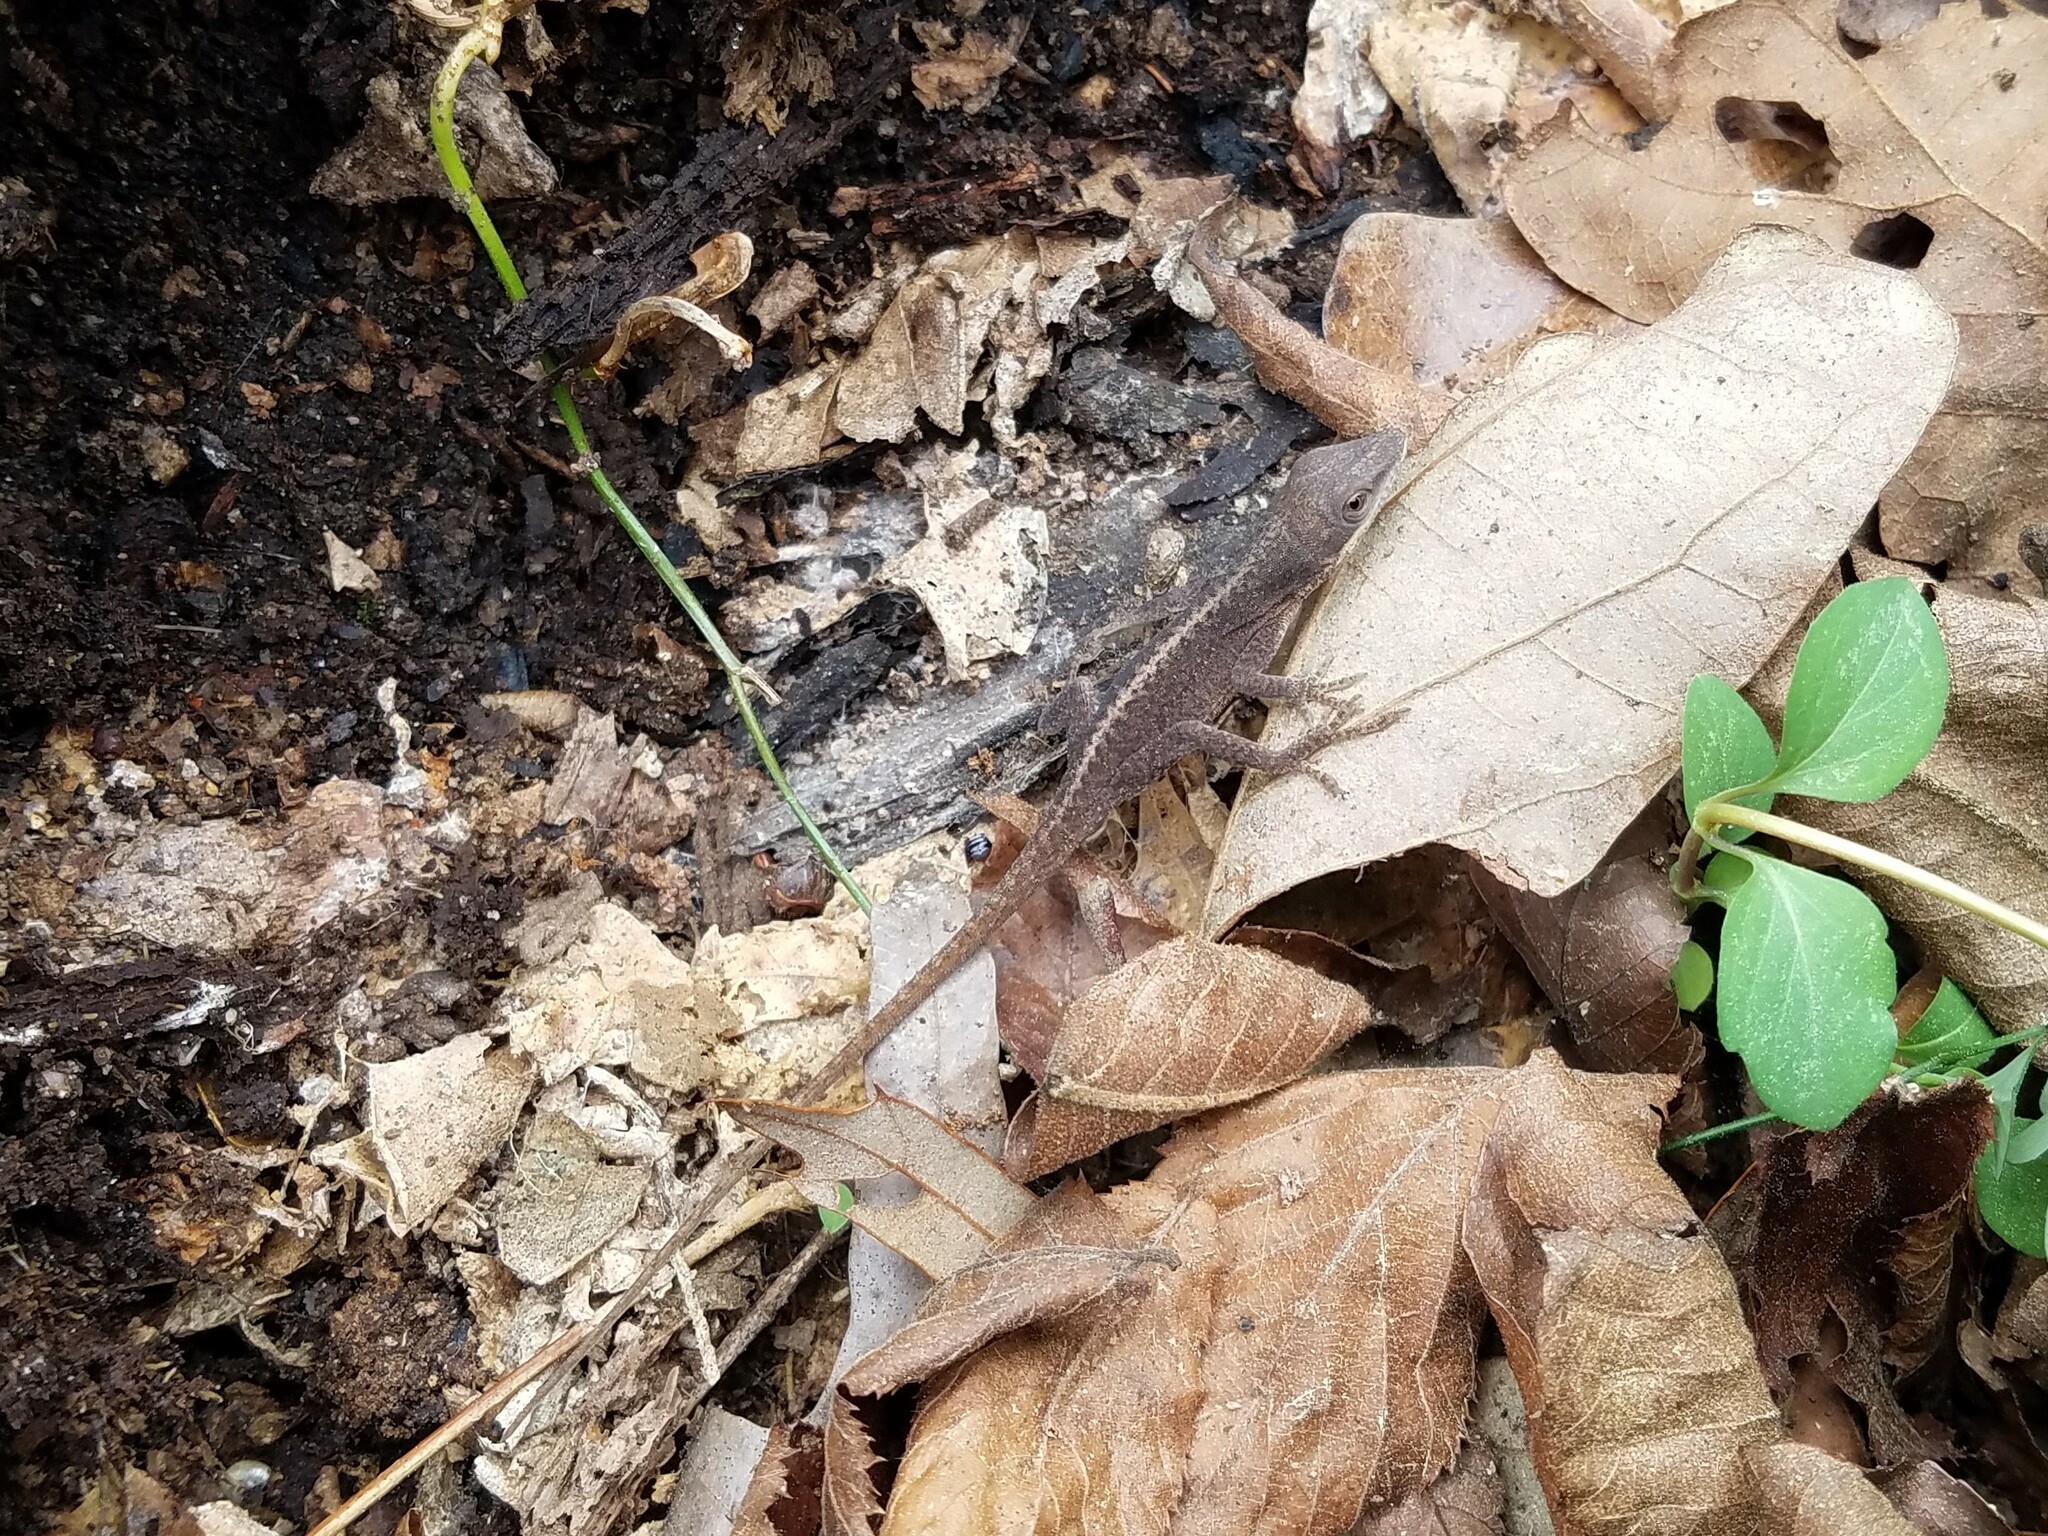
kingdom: Animalia
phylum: Chordata
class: Squamata
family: Dactyloidae
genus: Anolis
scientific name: Anolis carolinensis
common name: Green anole
